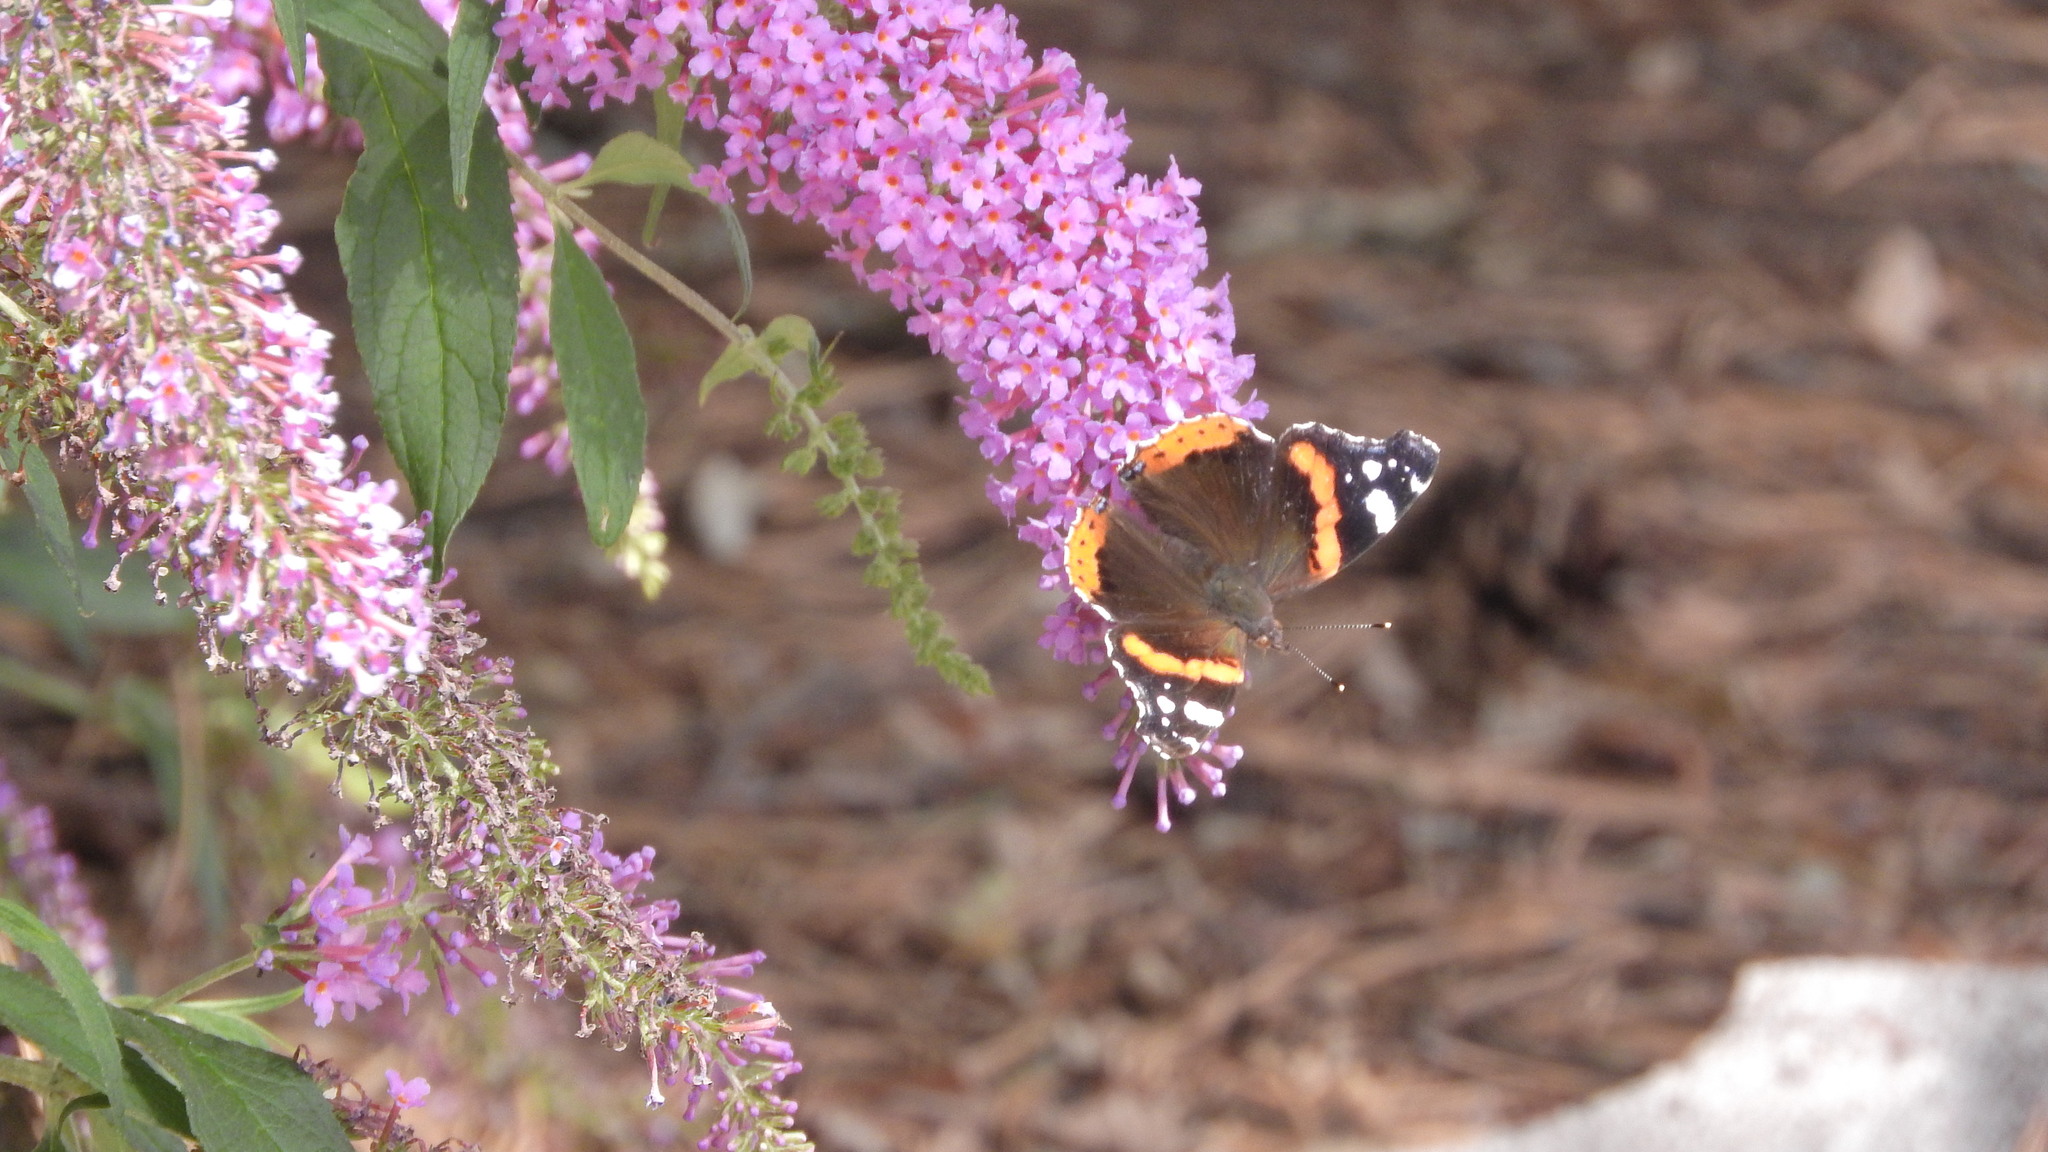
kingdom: Animalia
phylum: Arthropoda
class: Insecta
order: Lepidoptera
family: Nymphalidae
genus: Vanessa
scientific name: Vanessa atalanta
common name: Red admiral
